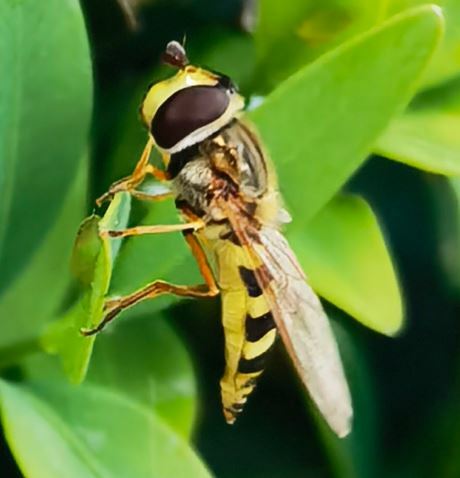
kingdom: Animalia
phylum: Arthropoda
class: Insecta
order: Diptera
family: Syrphidae
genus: Eupeodes
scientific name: Eupeodes corollae
